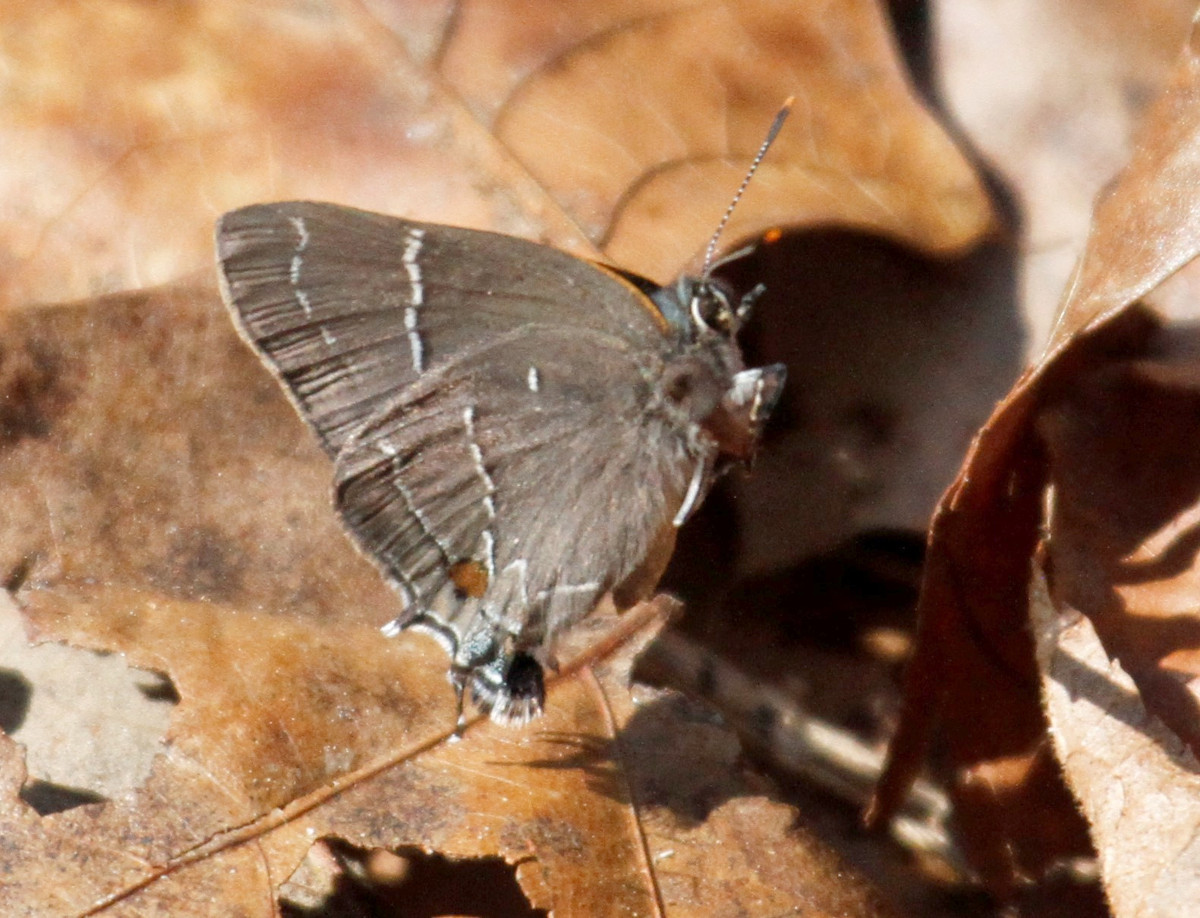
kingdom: Animalia
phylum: Arthropoda
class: Insecta
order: Lepidoptera
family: Lycaenidae
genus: Parrhasius
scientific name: Parrhasius m-album
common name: White m hairstreak
